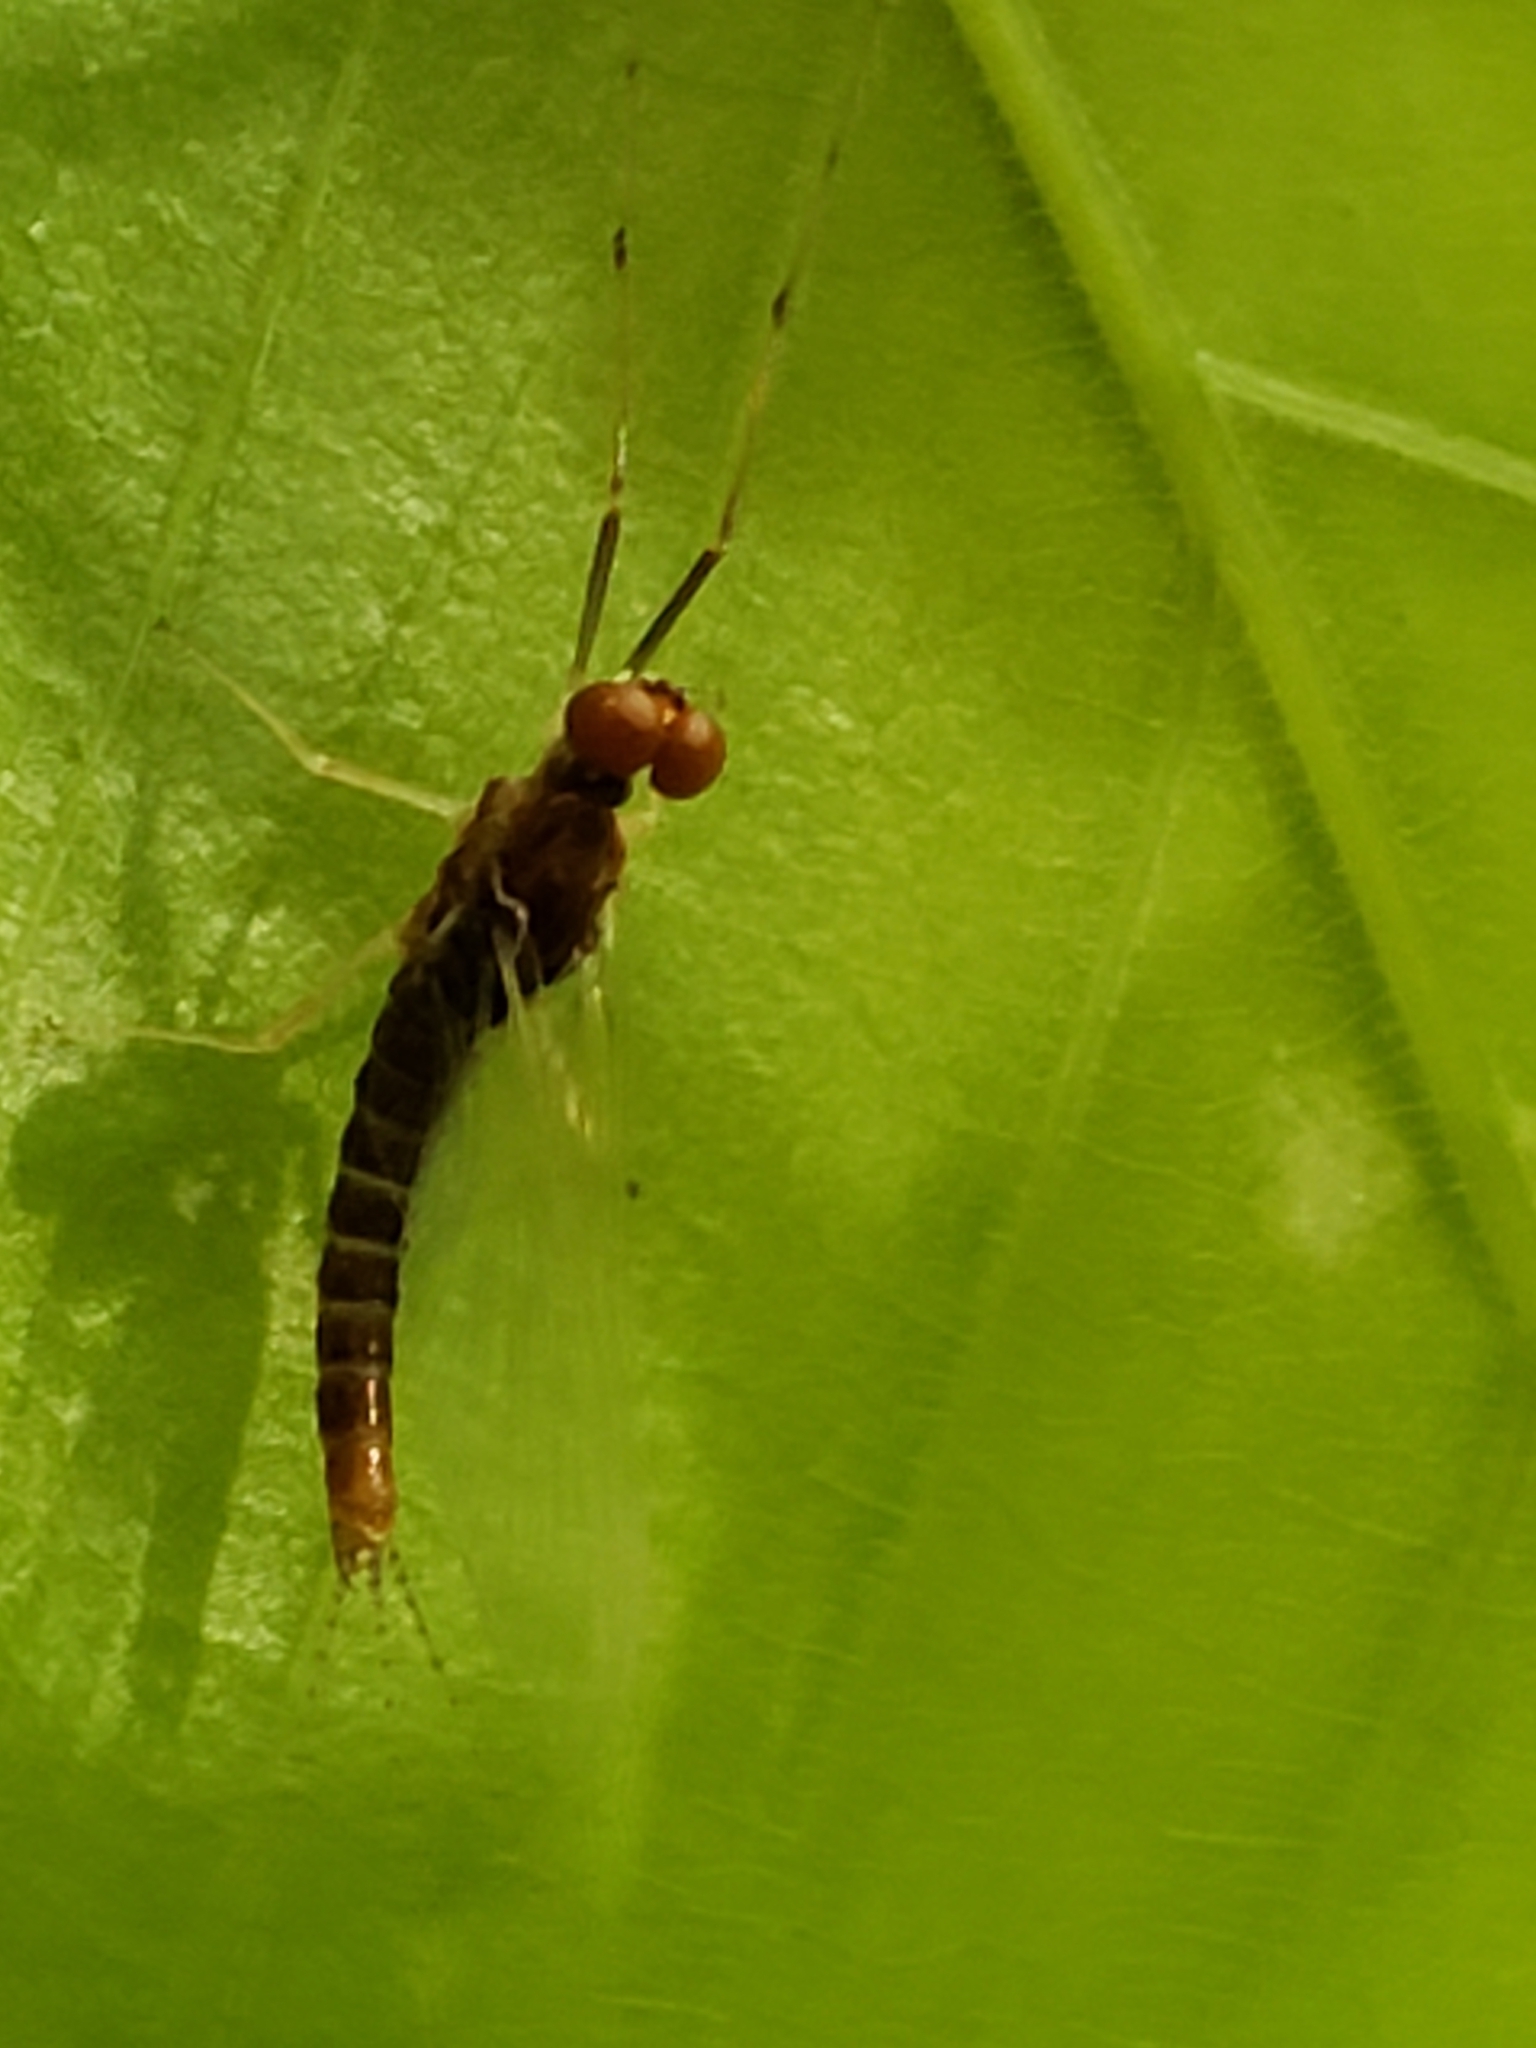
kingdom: Animalia
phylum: Arthropoda
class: Insecta
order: Ephemeroptera
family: Ephemerellidae
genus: Ephemerella
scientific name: Ephemerella needhami
